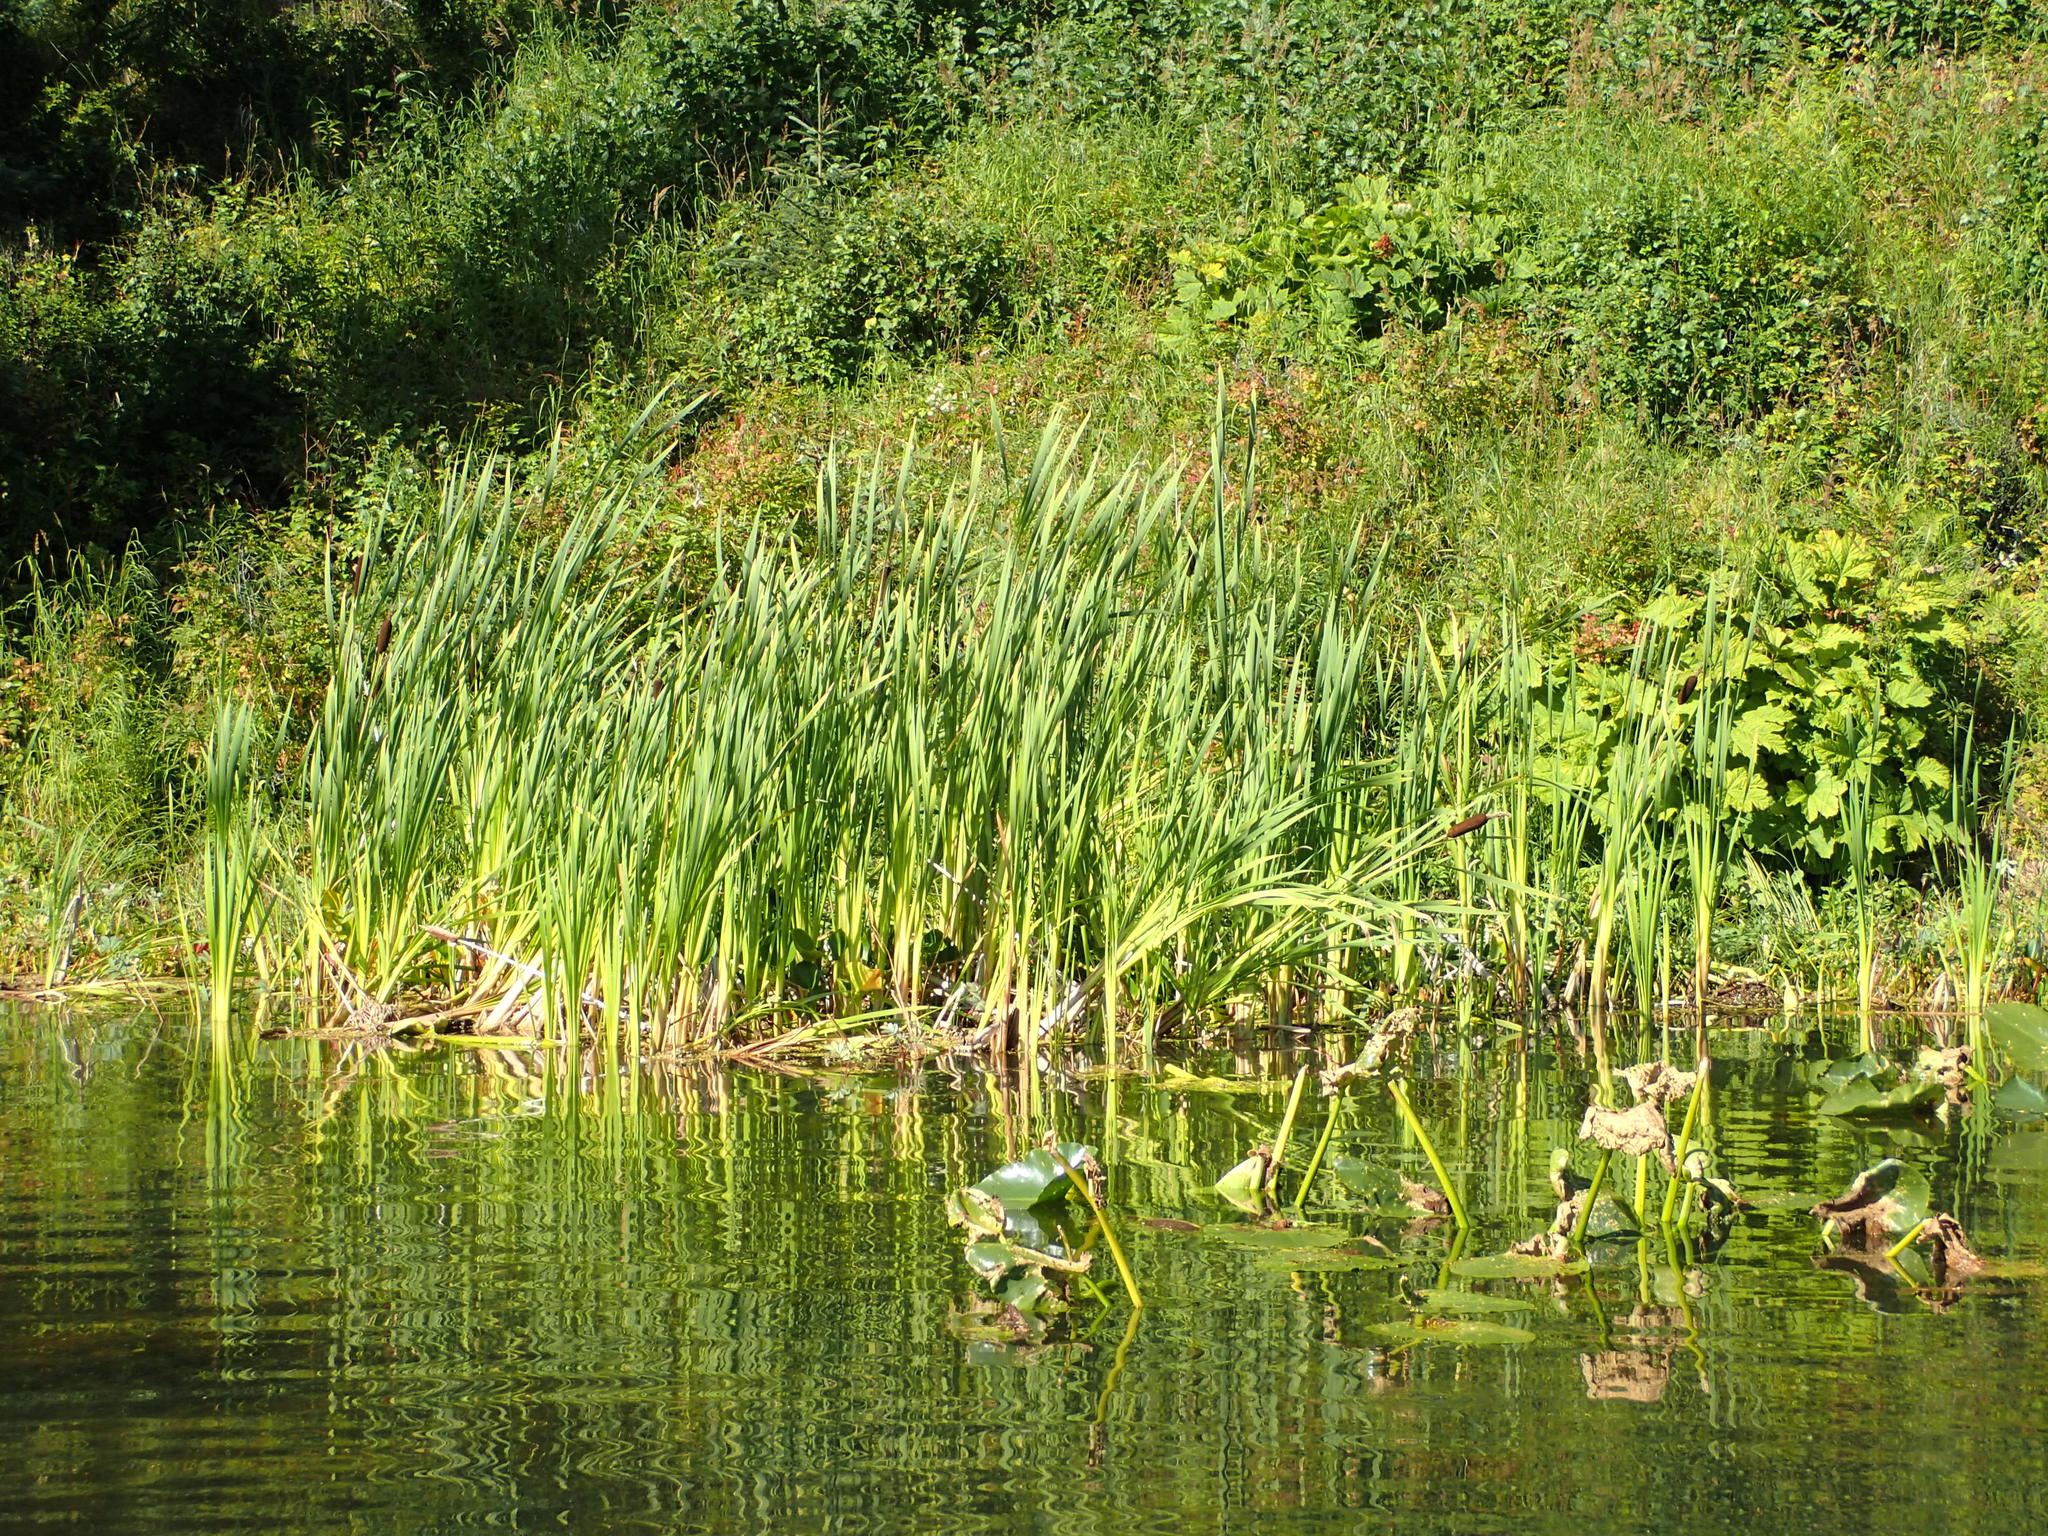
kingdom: Plantae
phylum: Tracheophyta
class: Liliopsida
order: Poales
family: Typhaceae
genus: Typha
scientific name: Typha latifolia
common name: Broadleaf cattail
